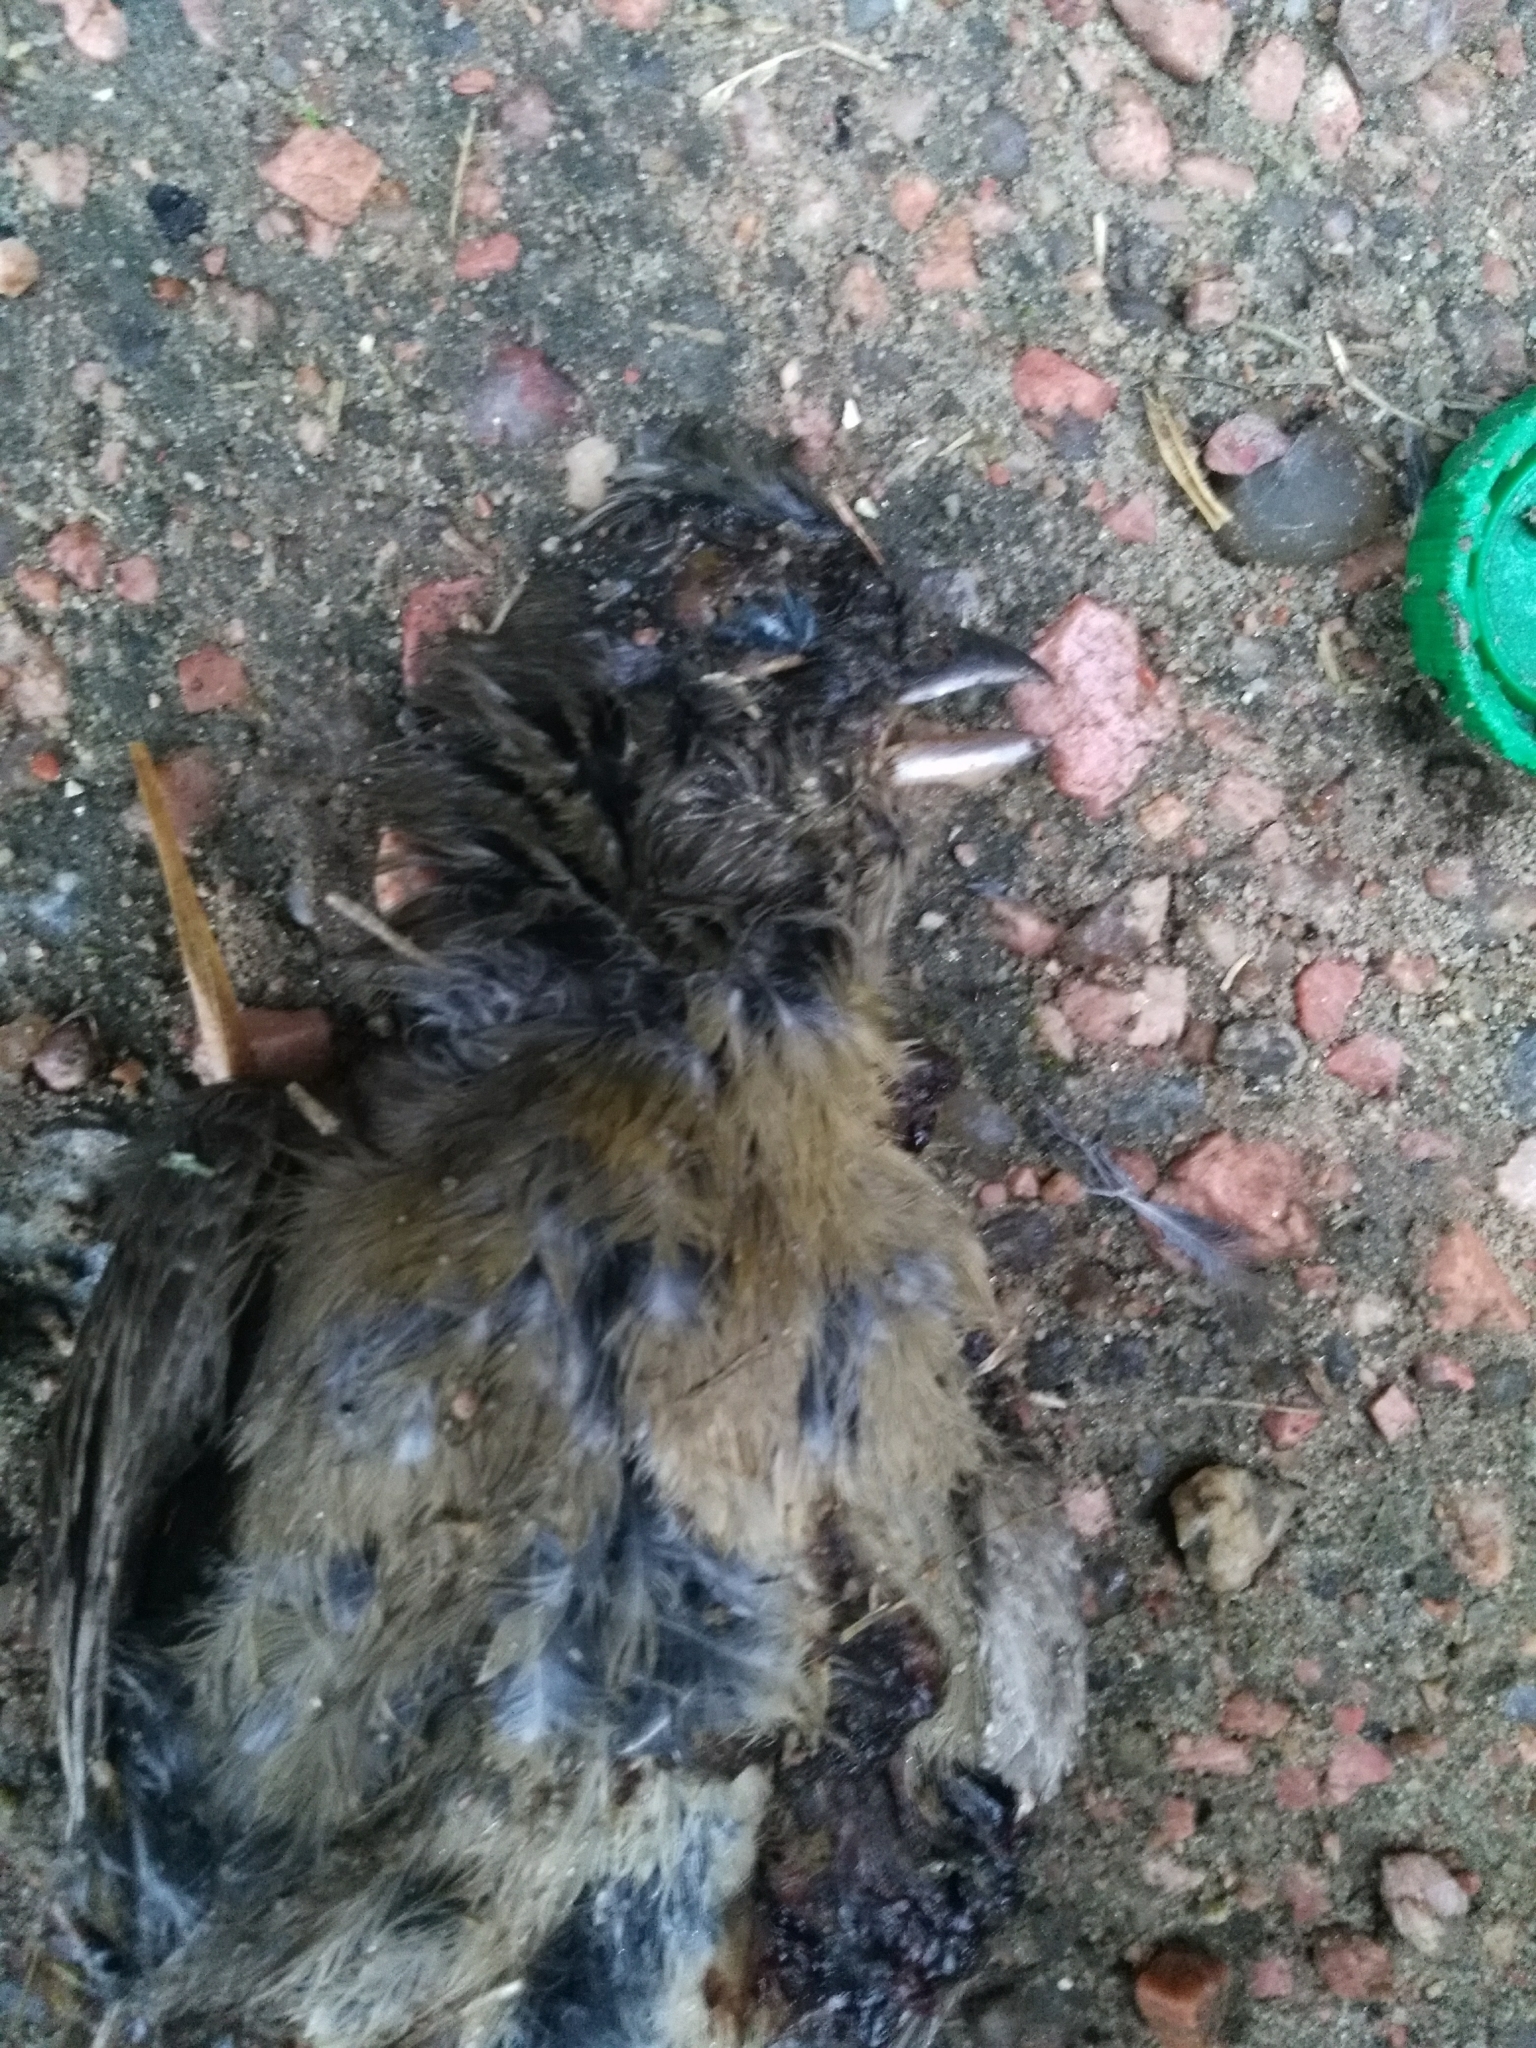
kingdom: Animalia
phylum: Chordata
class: Aves
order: Passeriformes
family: Thraupidae
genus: Rauenia
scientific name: Rauenia bonariensis
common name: Blue-and-yellow tanager
